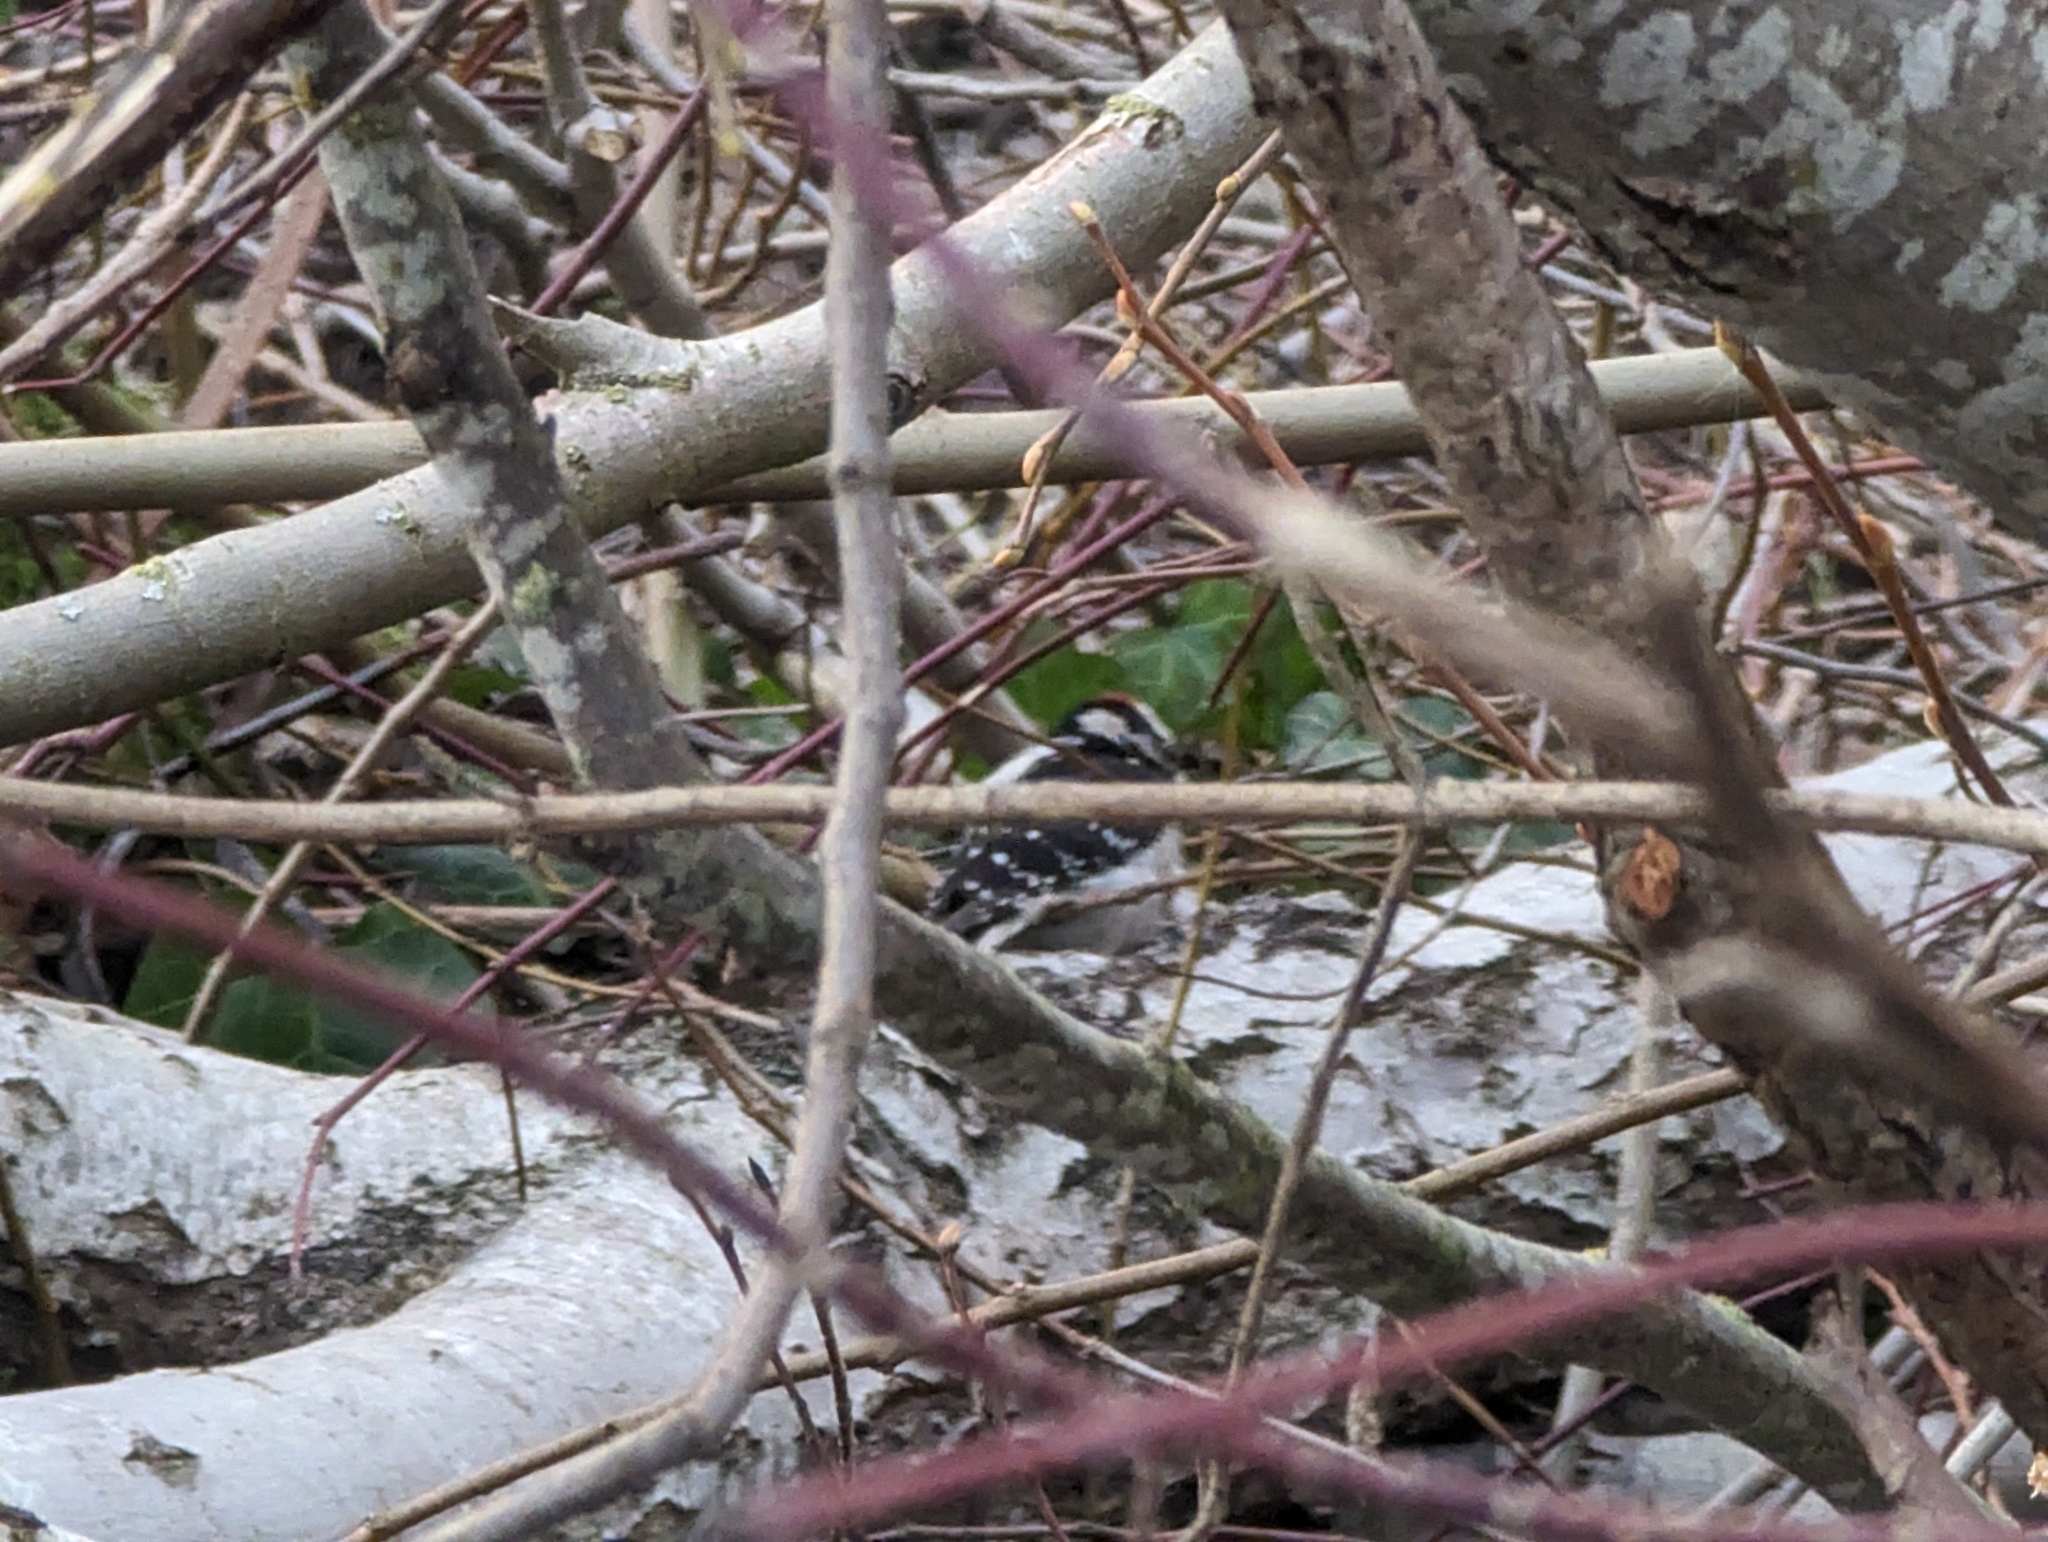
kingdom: Animalia
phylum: Chordata
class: Aves
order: Piciformes
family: Picidae
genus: Dryobates
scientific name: Dryobates pubescens
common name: Downy woodpecker
